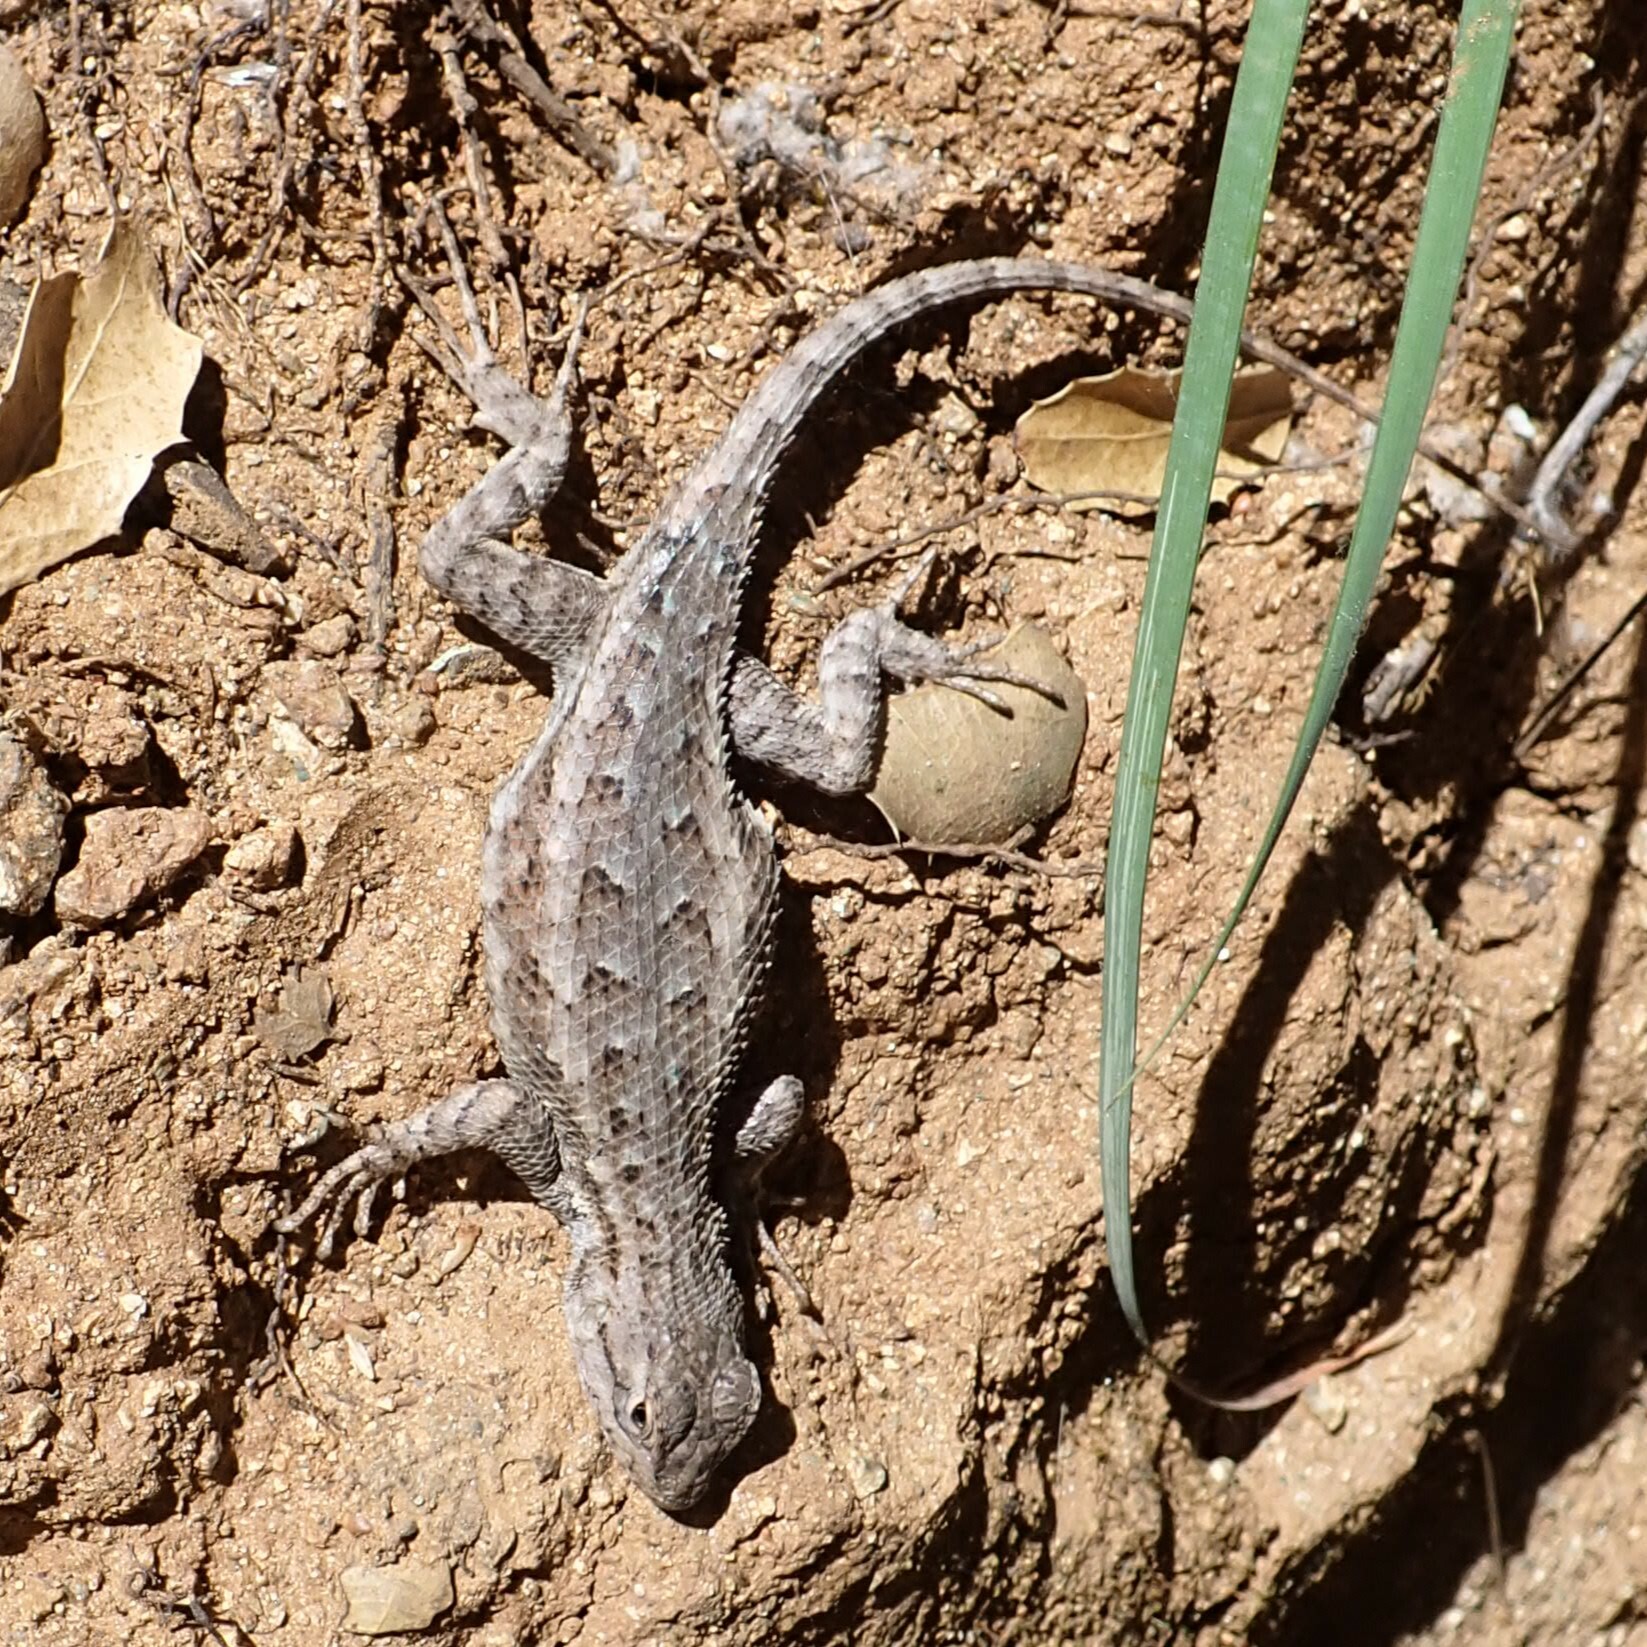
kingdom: Animalia
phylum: Chordata
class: Squamata
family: Phrynosomatidae
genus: Sceloporus
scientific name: Sceloporus occidentalis
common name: Western fence lizard
